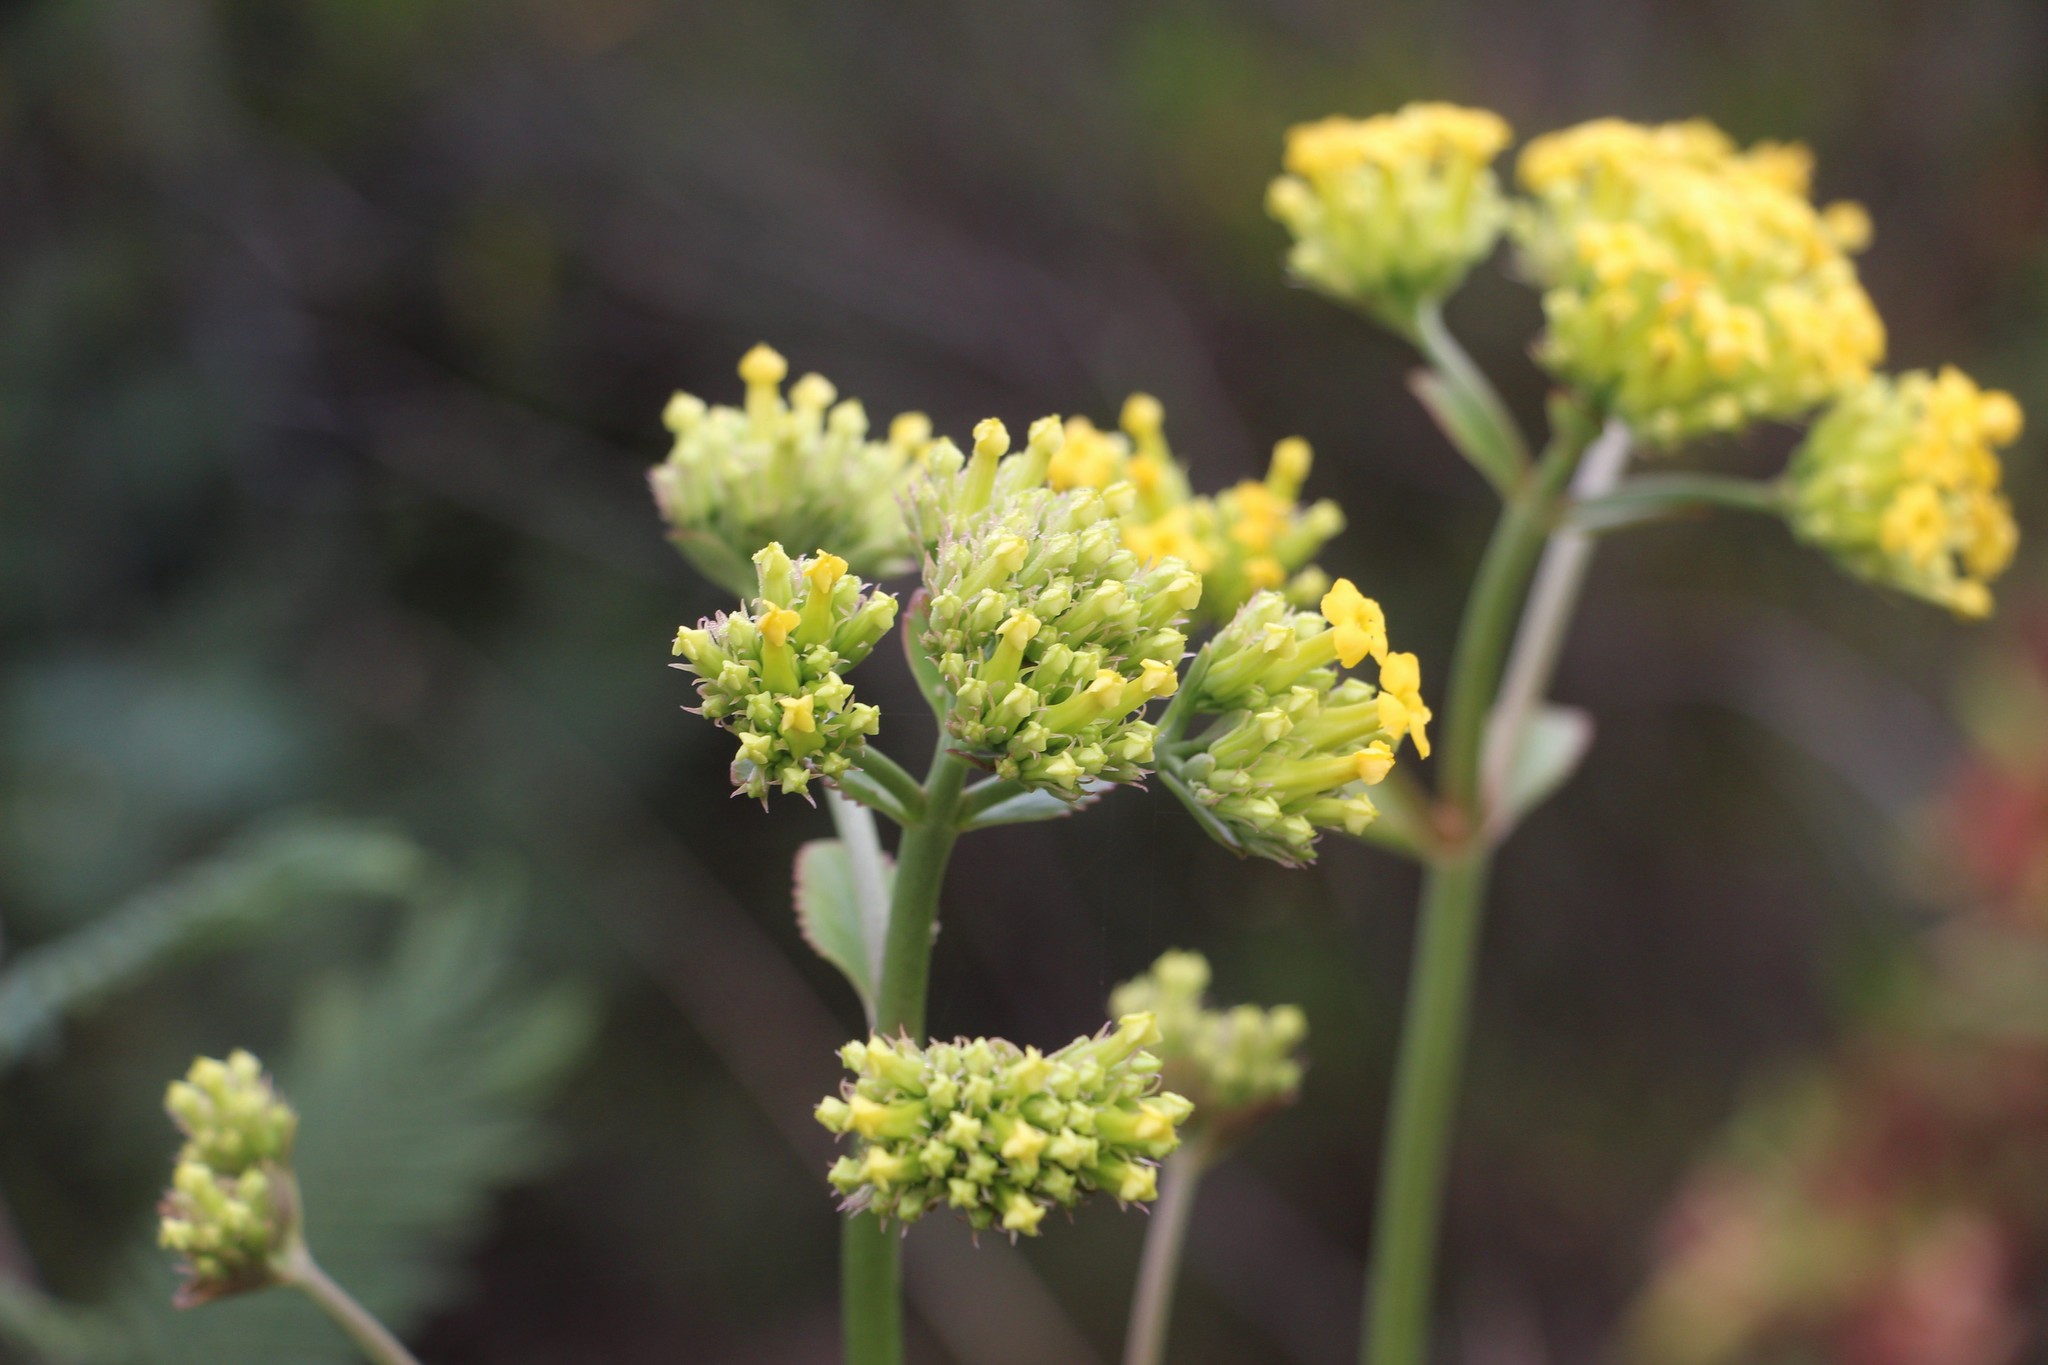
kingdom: Plantae
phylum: Tracheophyta
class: Magnoliopsida
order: Saxifragales
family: Crassulaceae
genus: Kalanchoe
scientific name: Kalanchoe densiflora
